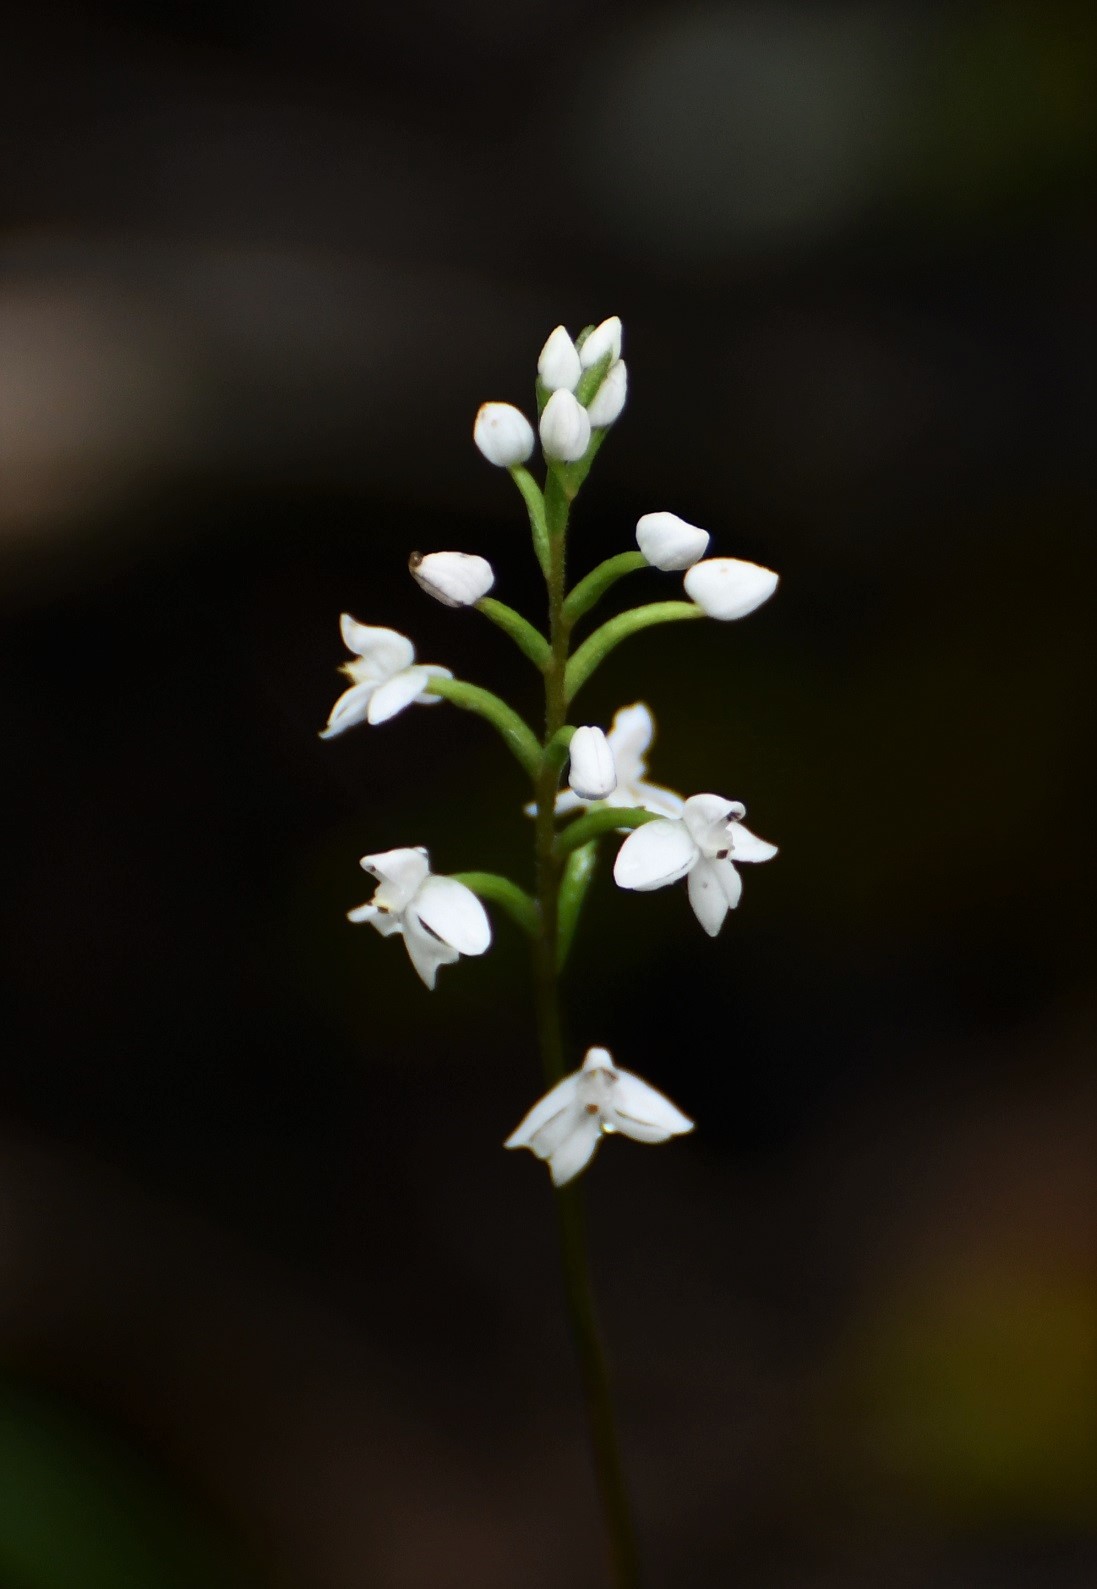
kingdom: Plantae
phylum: Tracheophyta
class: Liliopsida
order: Asparagales
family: Orchidaceae
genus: Cranichis
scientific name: Cranichis cochleata
